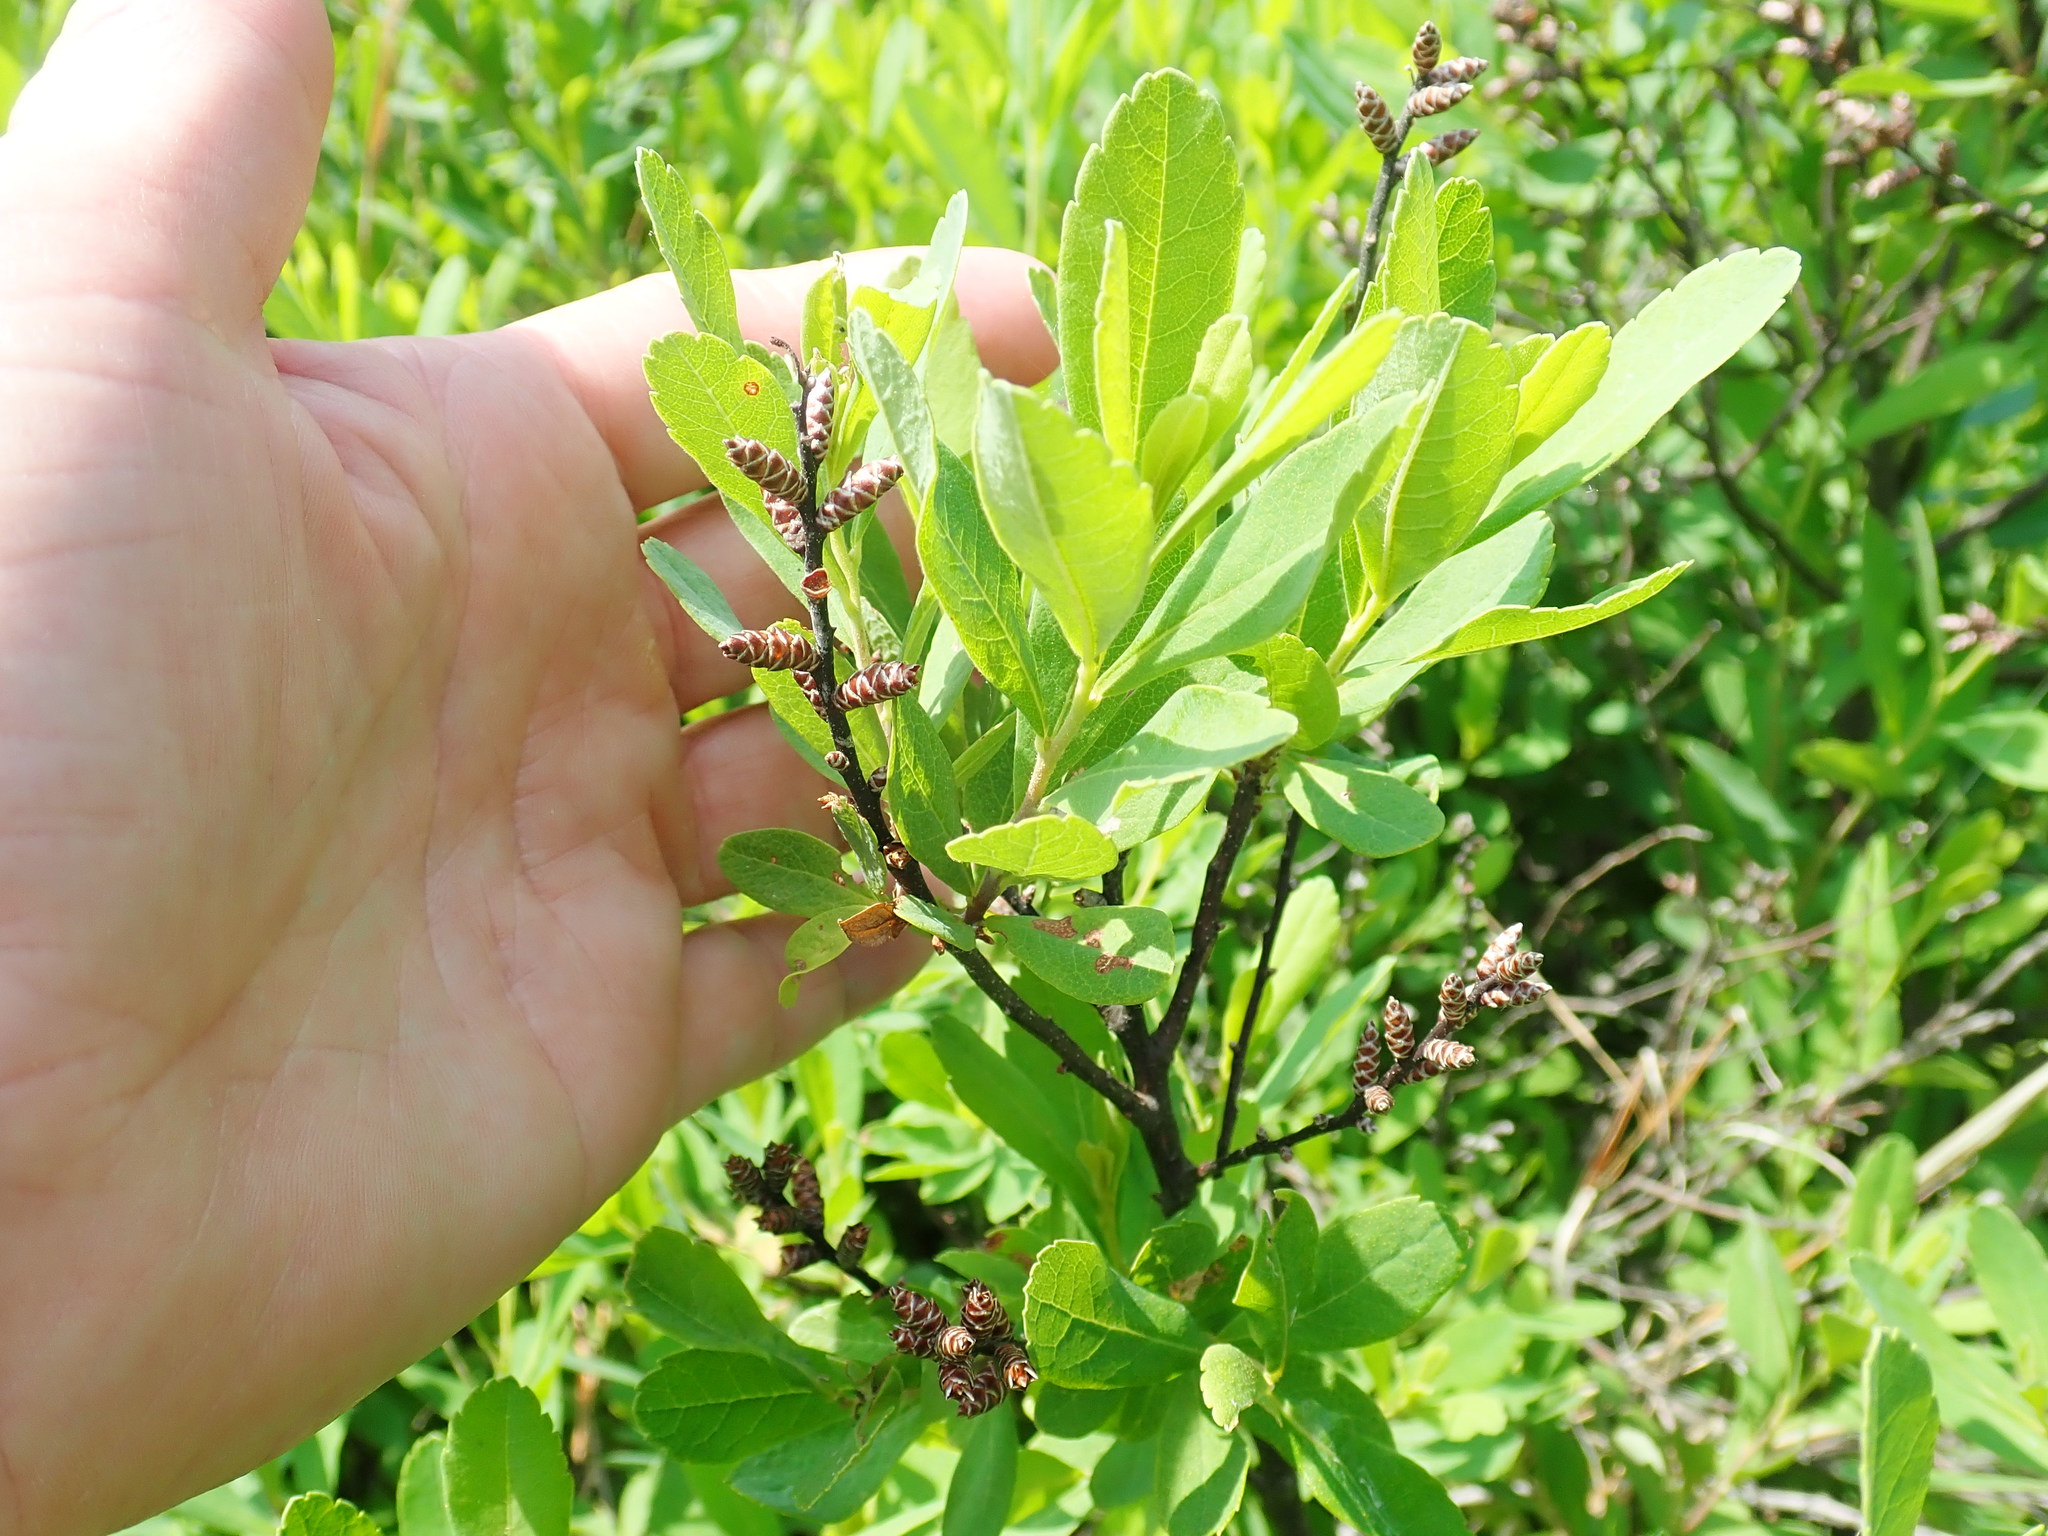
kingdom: Plantae
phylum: Tracheophyta
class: Magnoliopsida
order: Fagales
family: Myricaceae
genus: Myrica
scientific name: Myrica gale
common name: Sweet gale
